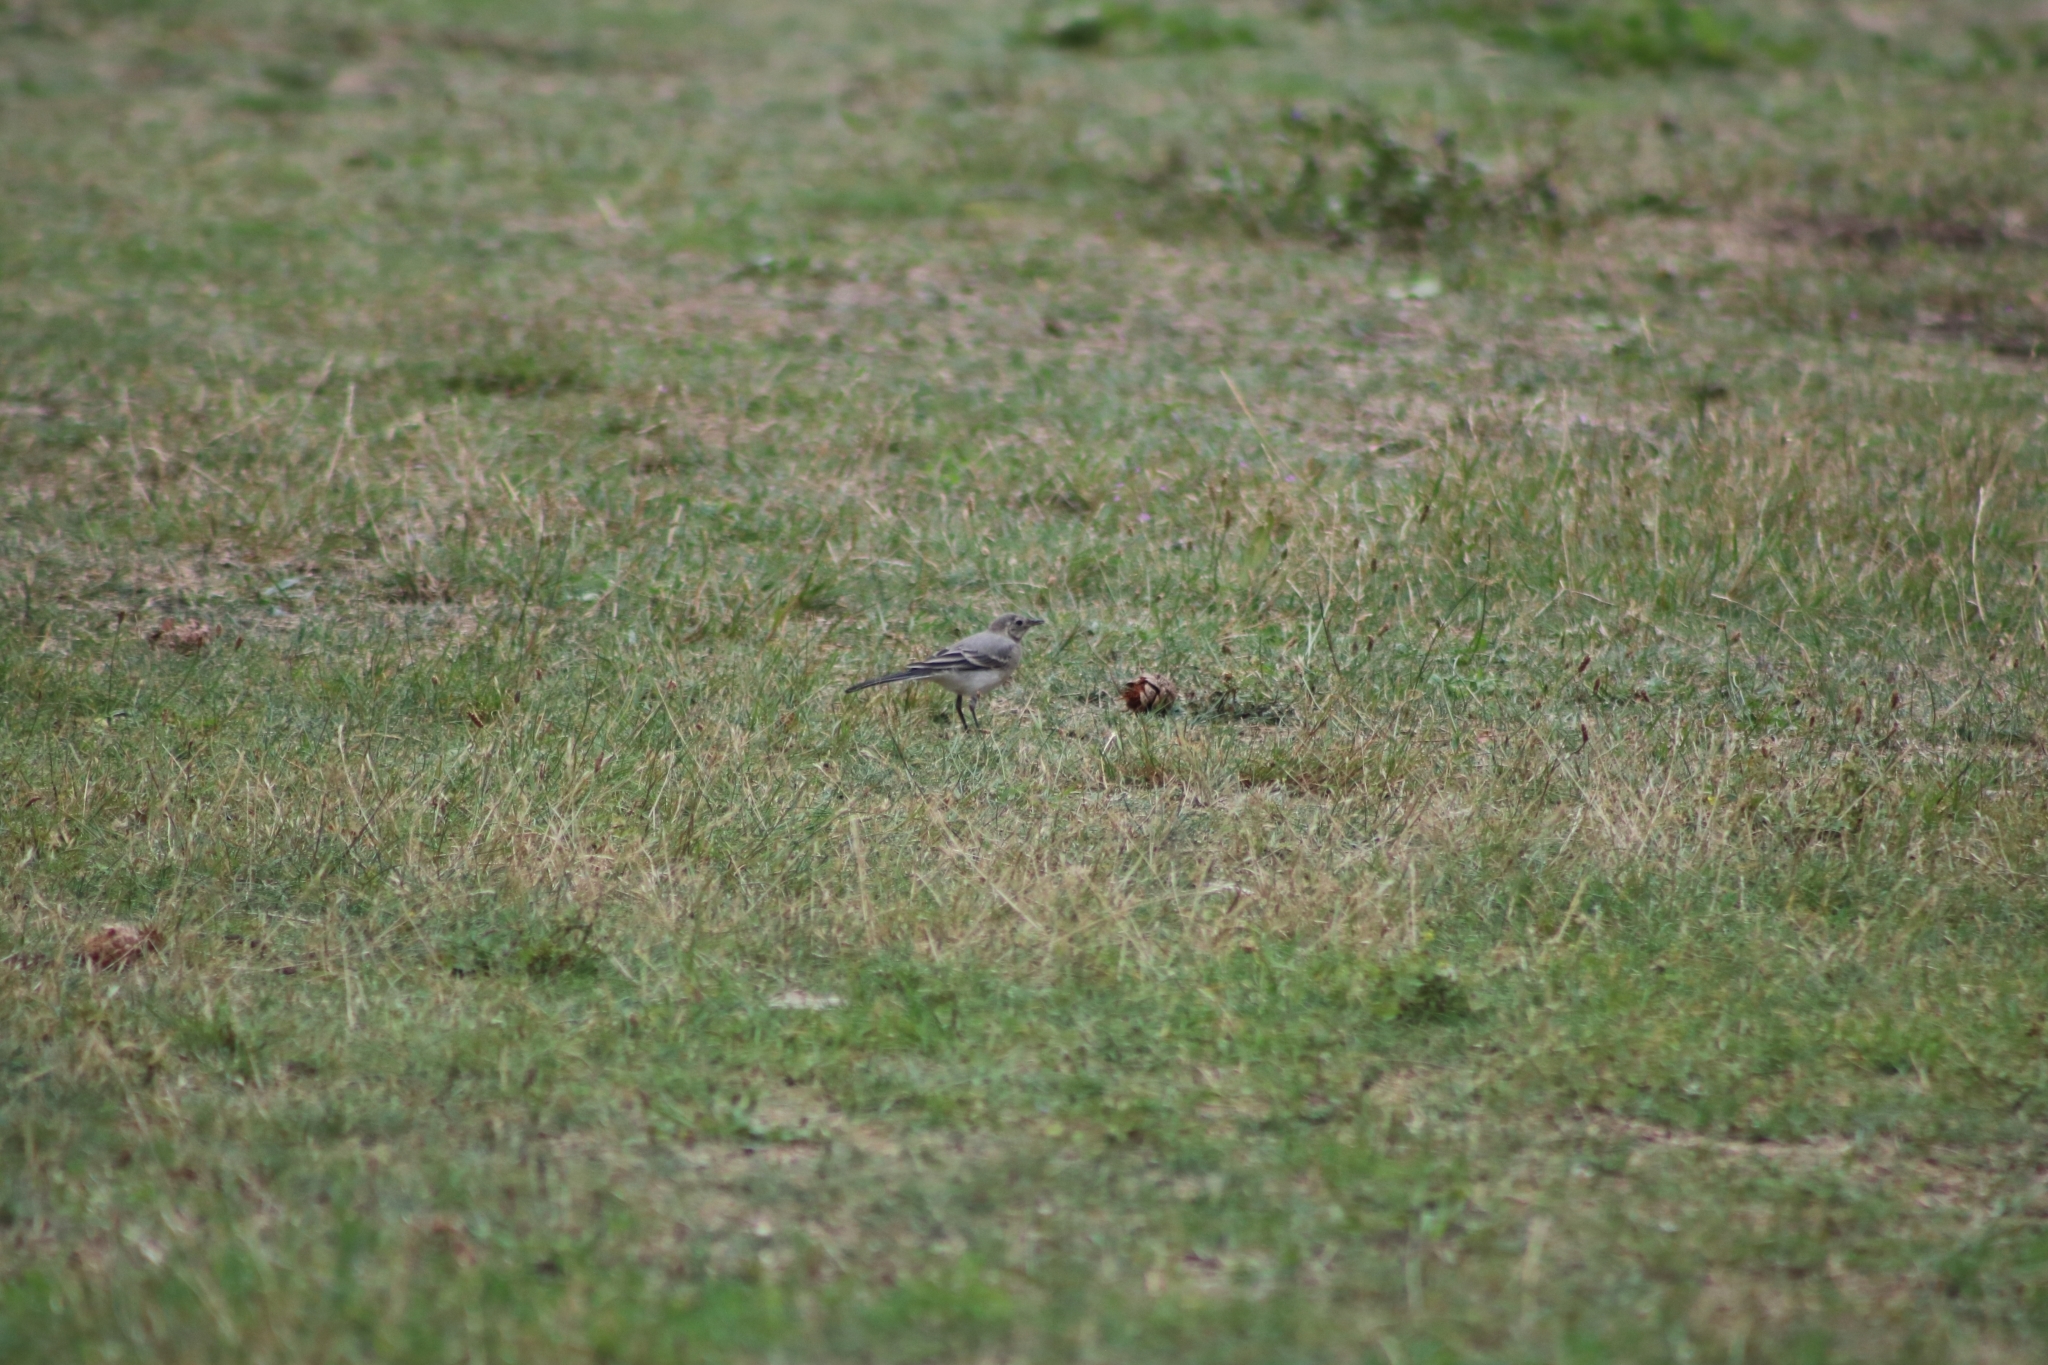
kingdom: Animalia
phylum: Chordata
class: Aves
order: Passeriformes
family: Motacillidae
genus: Motacilla
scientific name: Motacilla alba
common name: White wagtail
